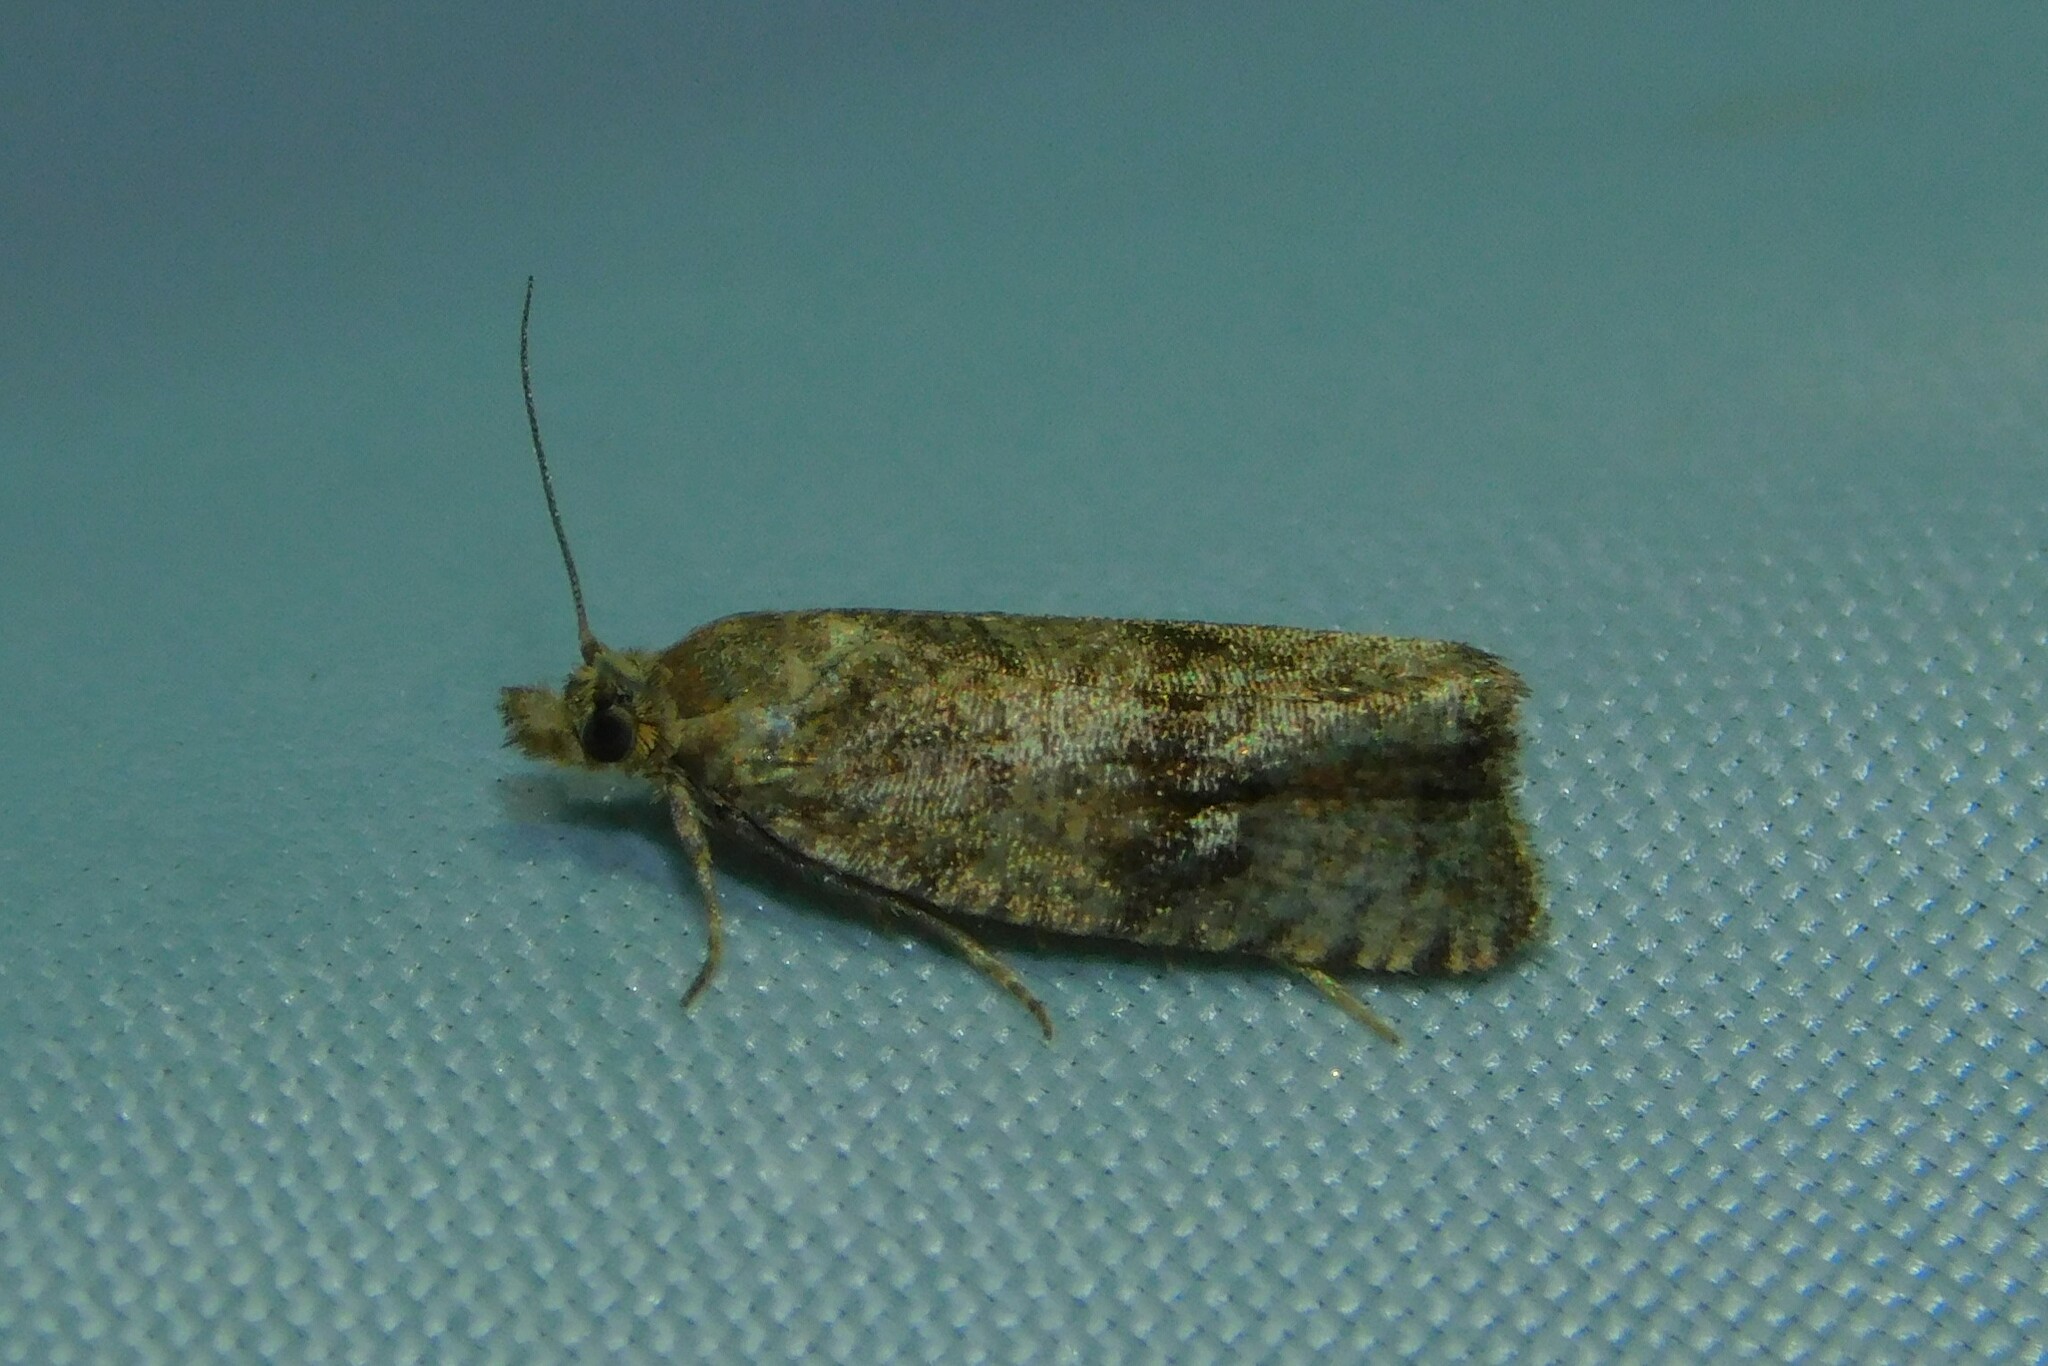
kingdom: Animalia
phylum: Arthropoda
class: Insecta
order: Lepidoptera
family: Tortricidae
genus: Celypha
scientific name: Celypha striana
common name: Barred marble
